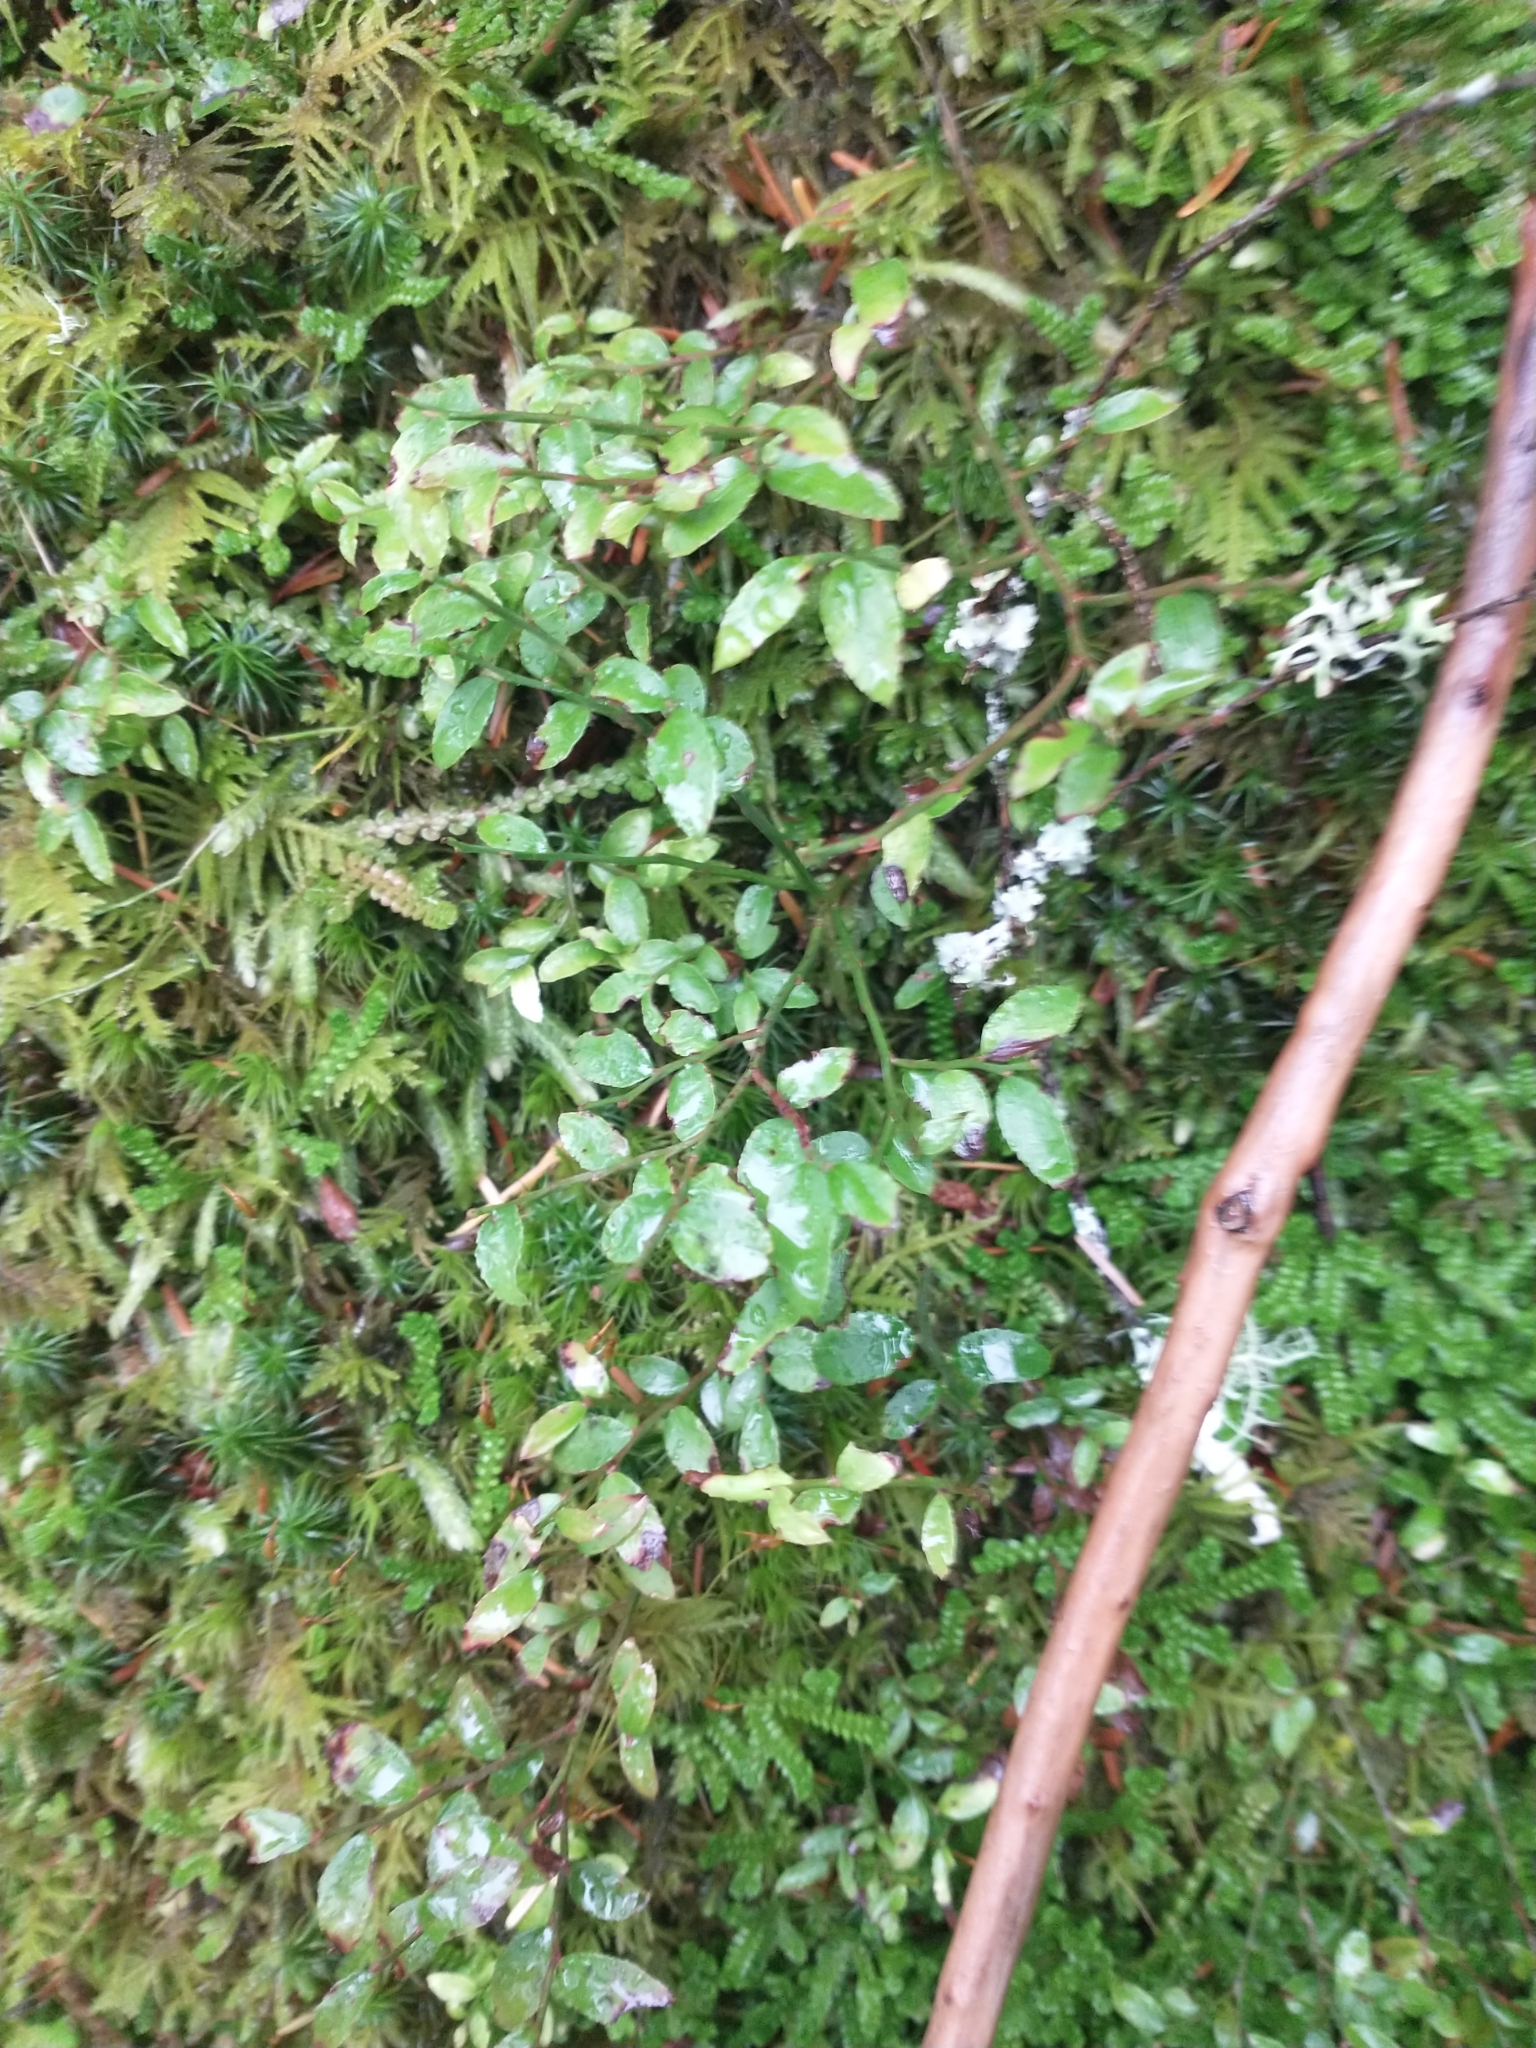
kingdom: Plantae
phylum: Tracheophyta
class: Magnoliopsida
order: Ericales
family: Ericaceae
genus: Vaccinium
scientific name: Vaccinium parvifolium
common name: Red-huckleberry
